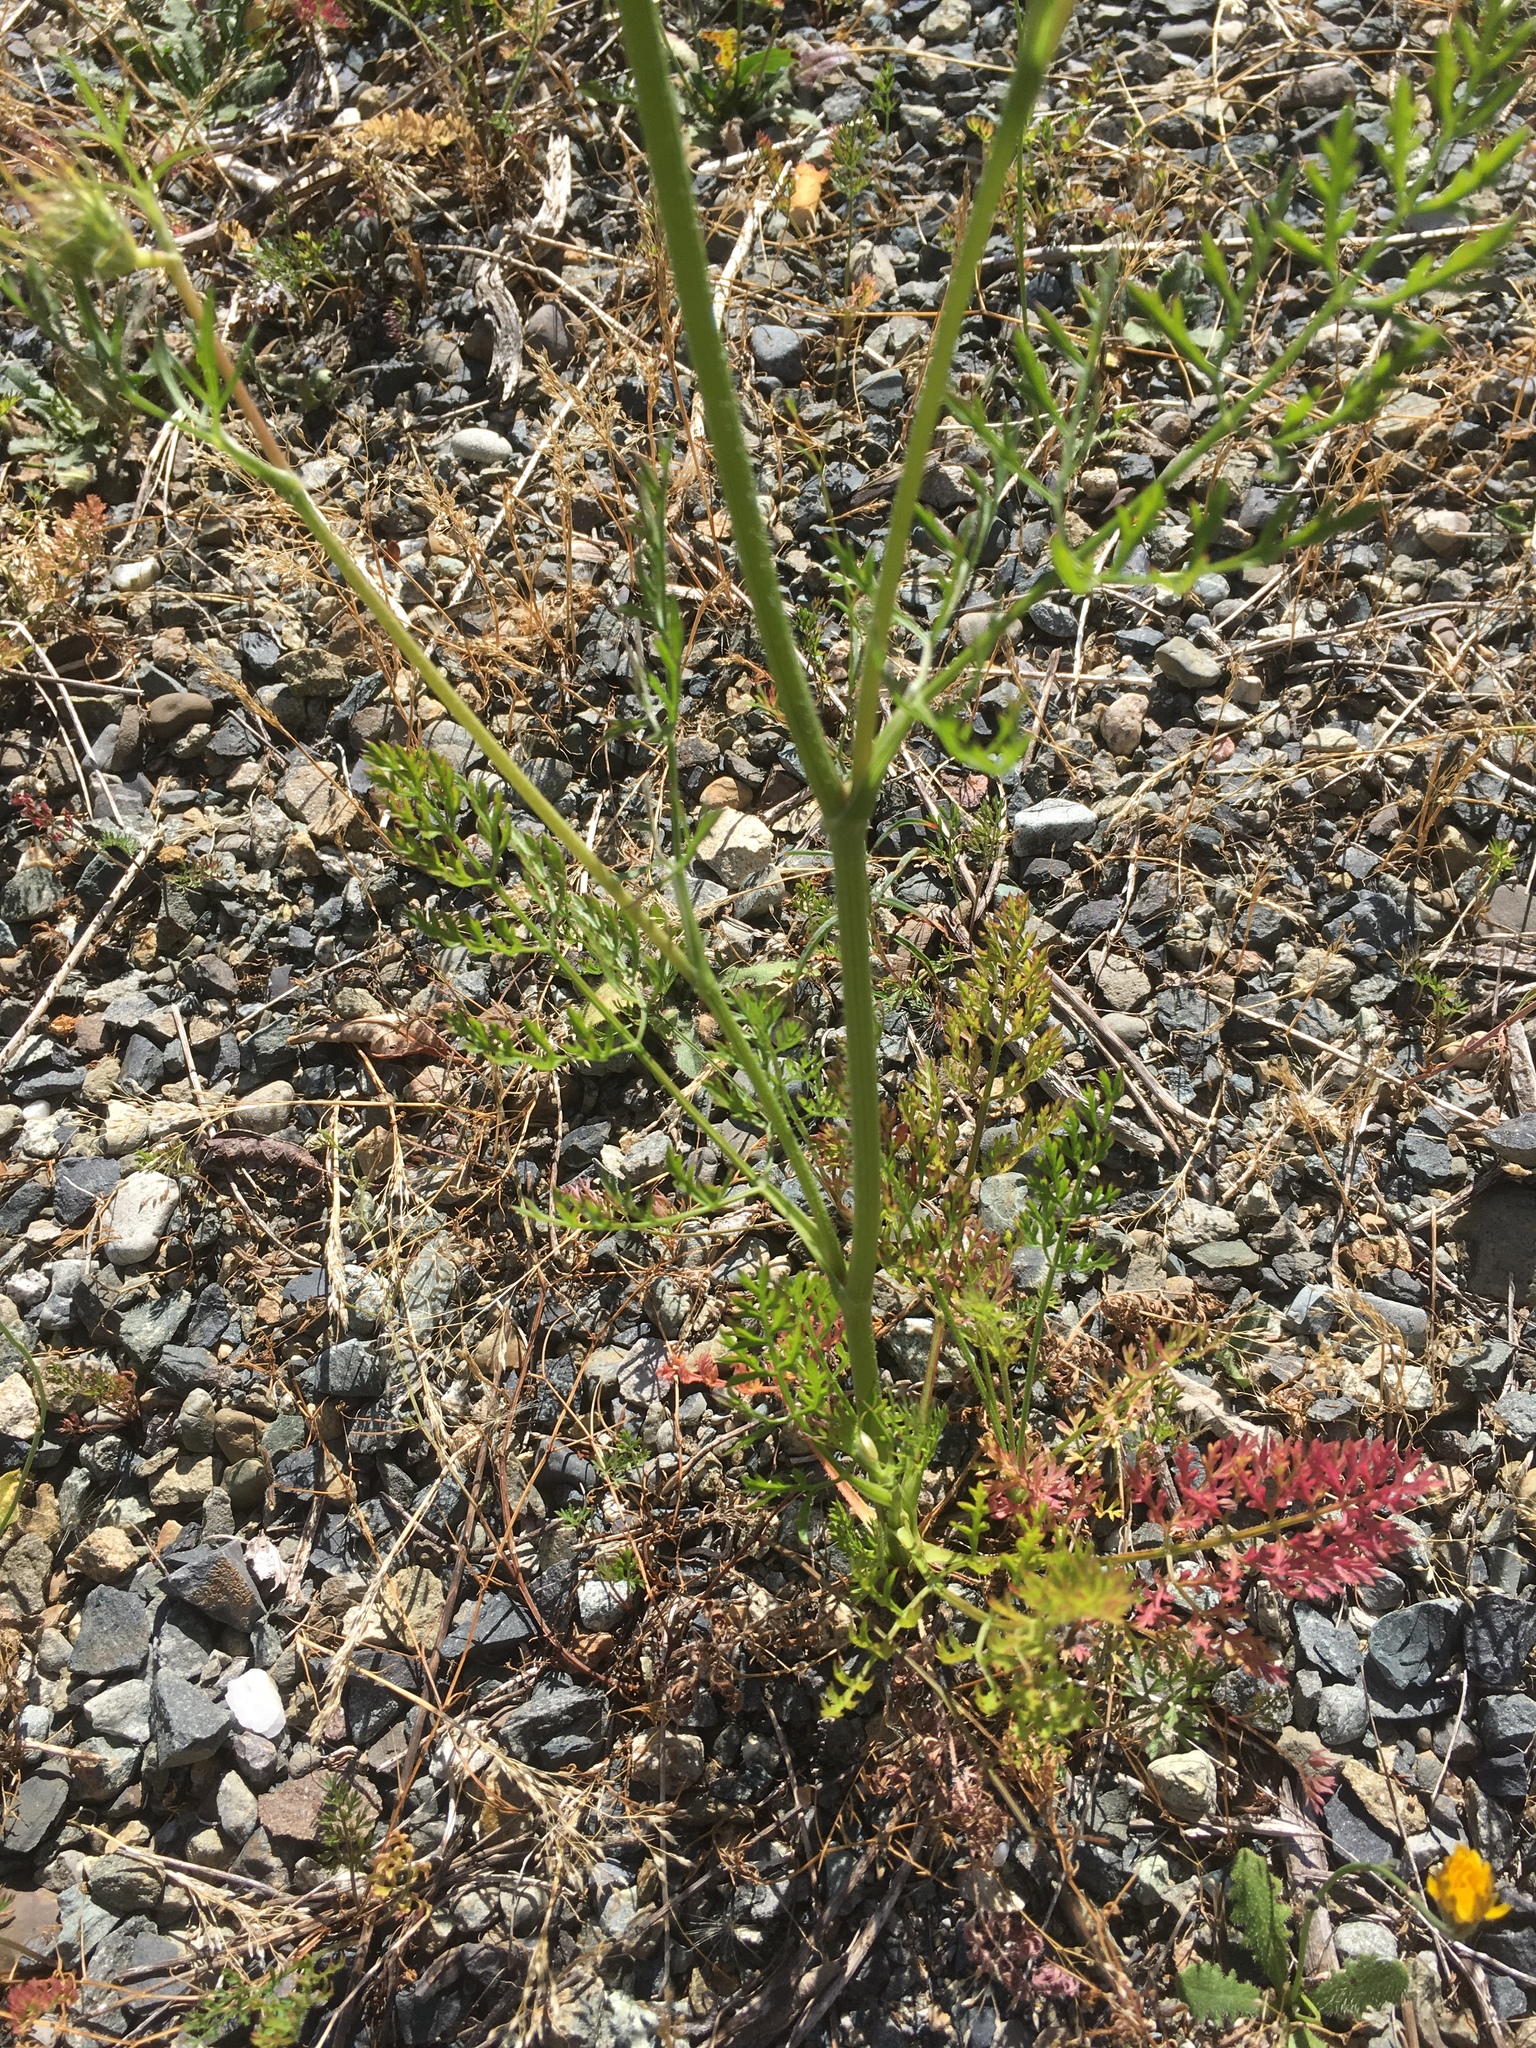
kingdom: Plantae
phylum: Tracheophyta
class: Magnoliopsida
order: Apiales
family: Apiaceae
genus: Daucus
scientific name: Daucus carota
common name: Wild carrot
